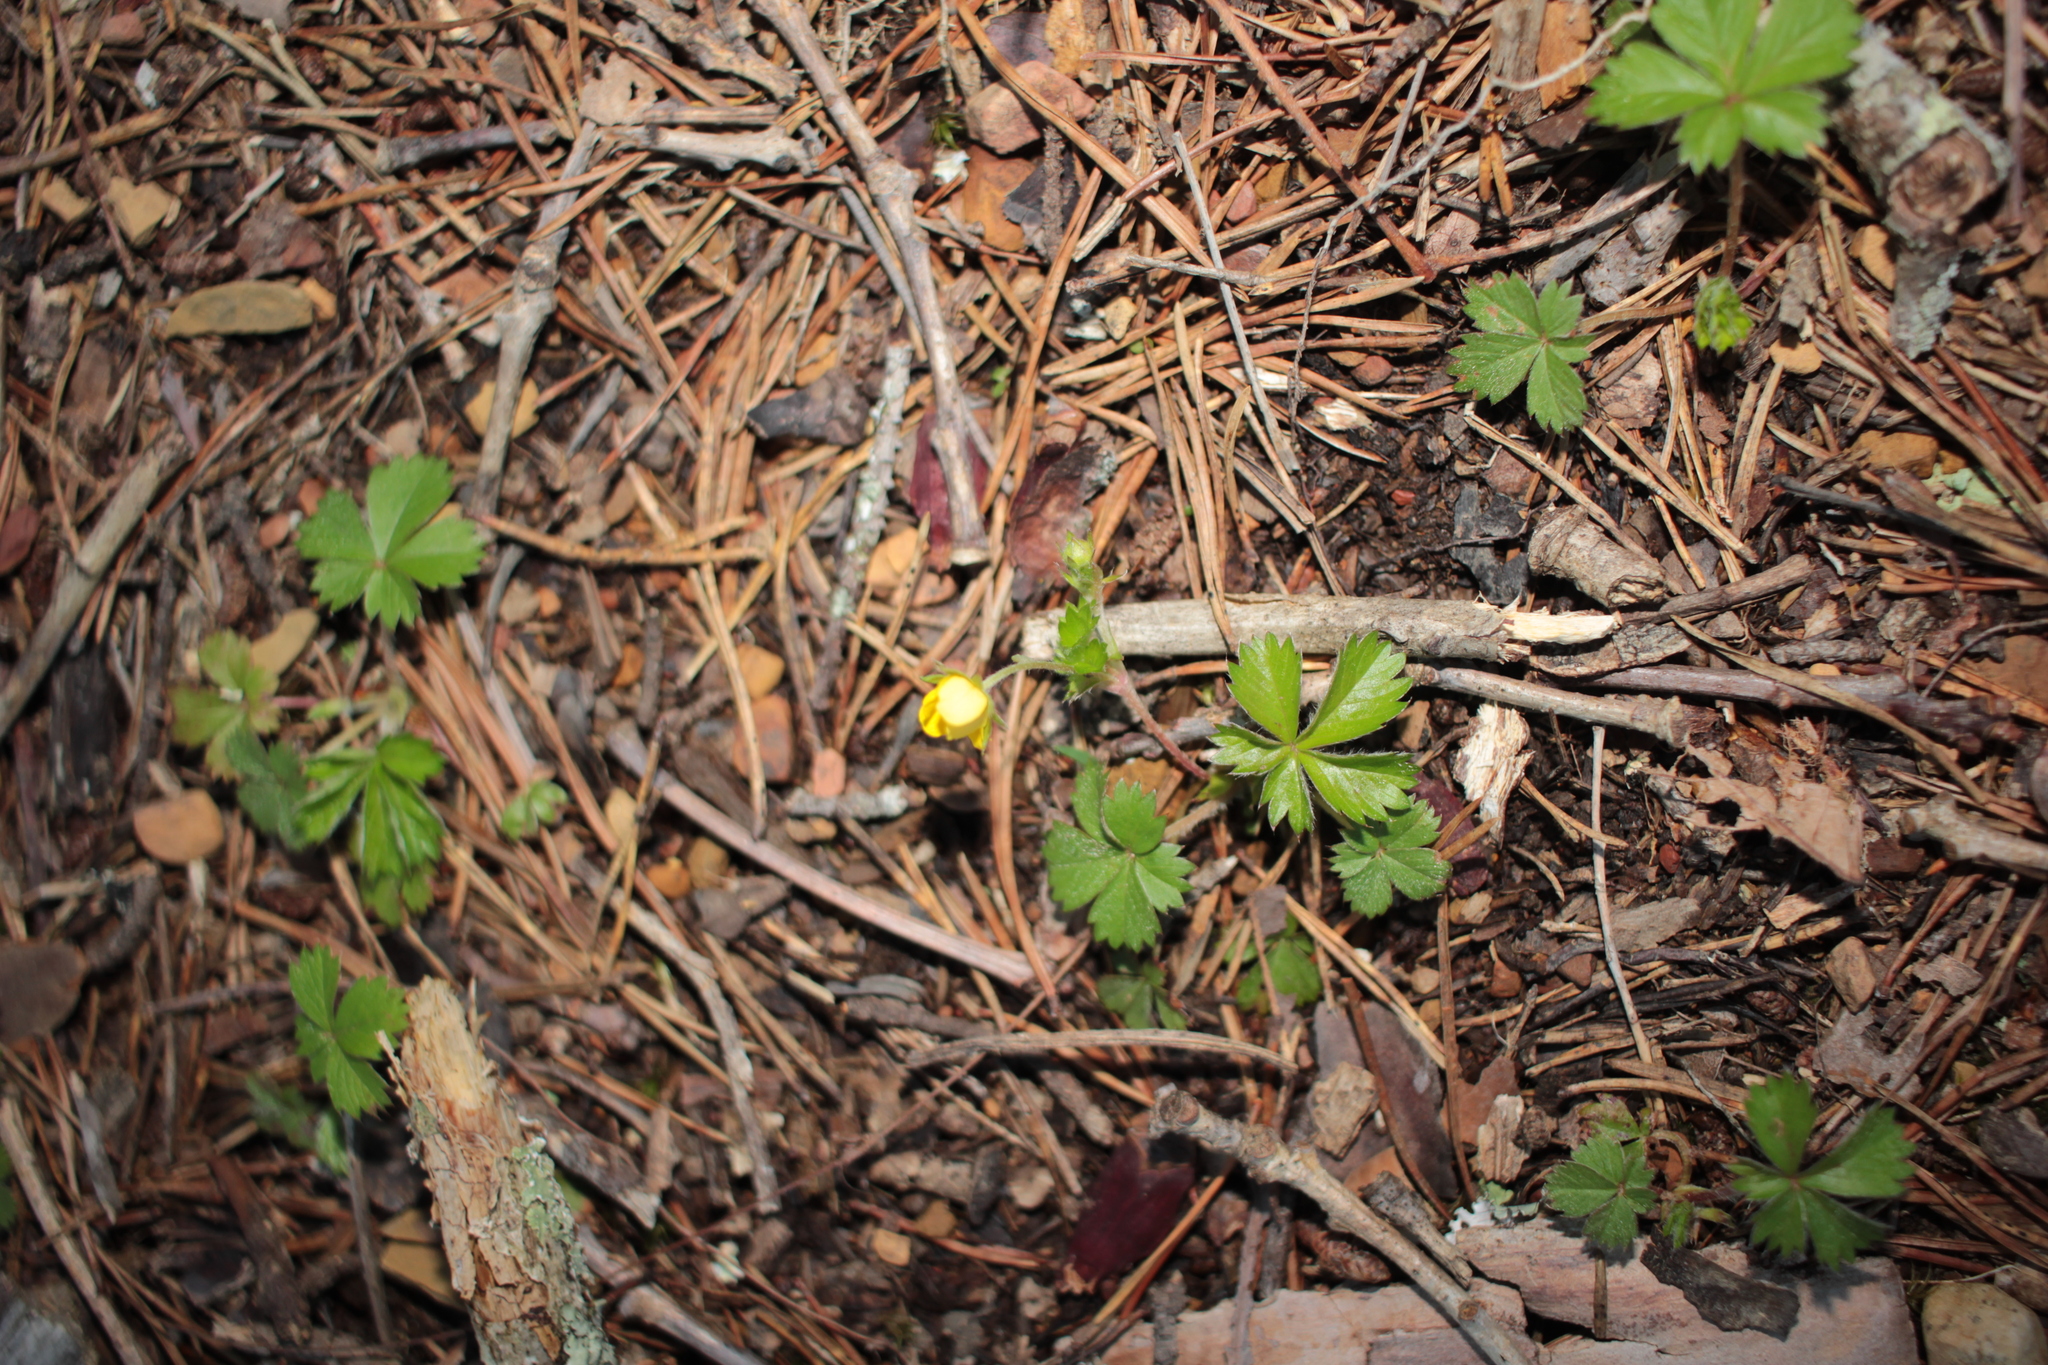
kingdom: Plantae
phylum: Tracheophyta
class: Magnoliopsida
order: Rosales
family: Rosaceae
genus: Potentilla
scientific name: Potentilla canadensis
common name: Canada cinquefoil
